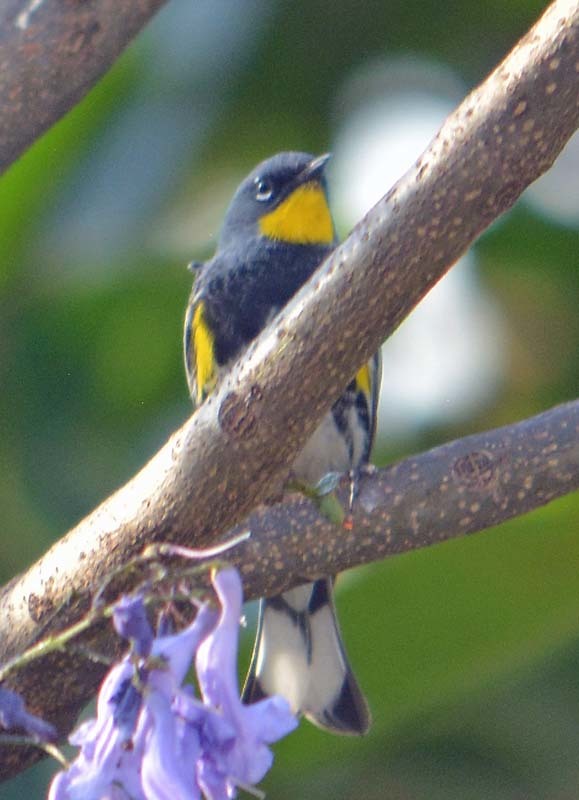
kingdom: Animalia
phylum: Chordata
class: Aves
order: Passeriformes
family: Parulidae
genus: Setophaga
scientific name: Setophaga auduboni
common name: Audubon's warbler
